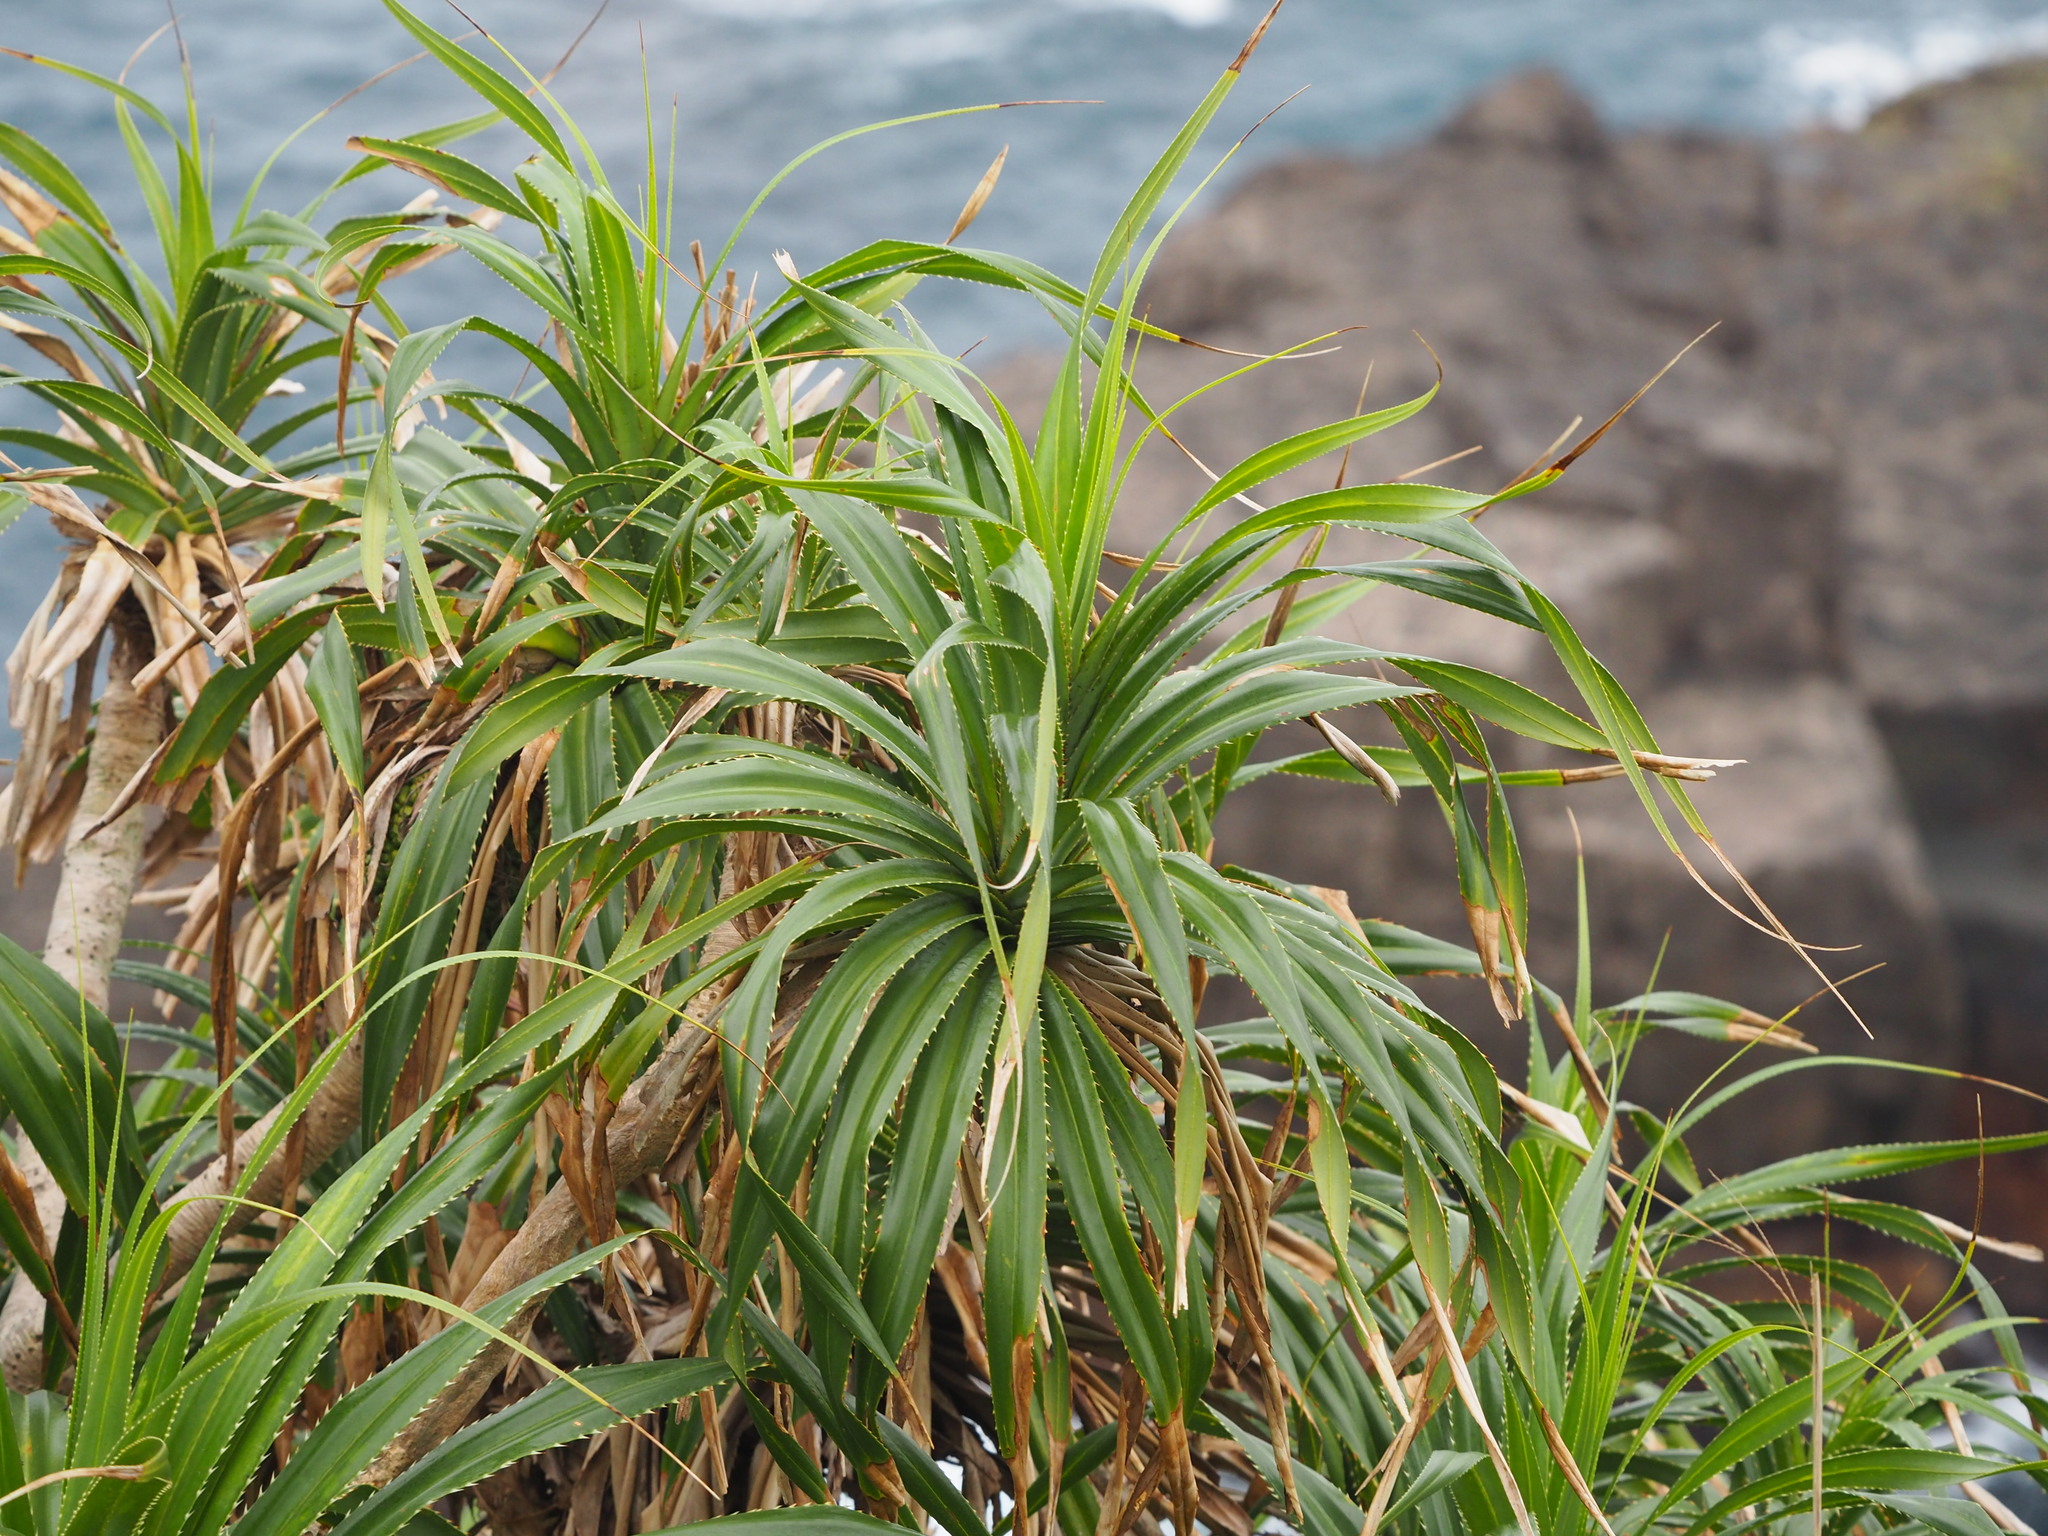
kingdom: Plantae
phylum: Tracheophyta
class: Liliopsida
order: Pandanales
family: Pandanaceae
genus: Pandanus
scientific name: Pandanus odorifer
